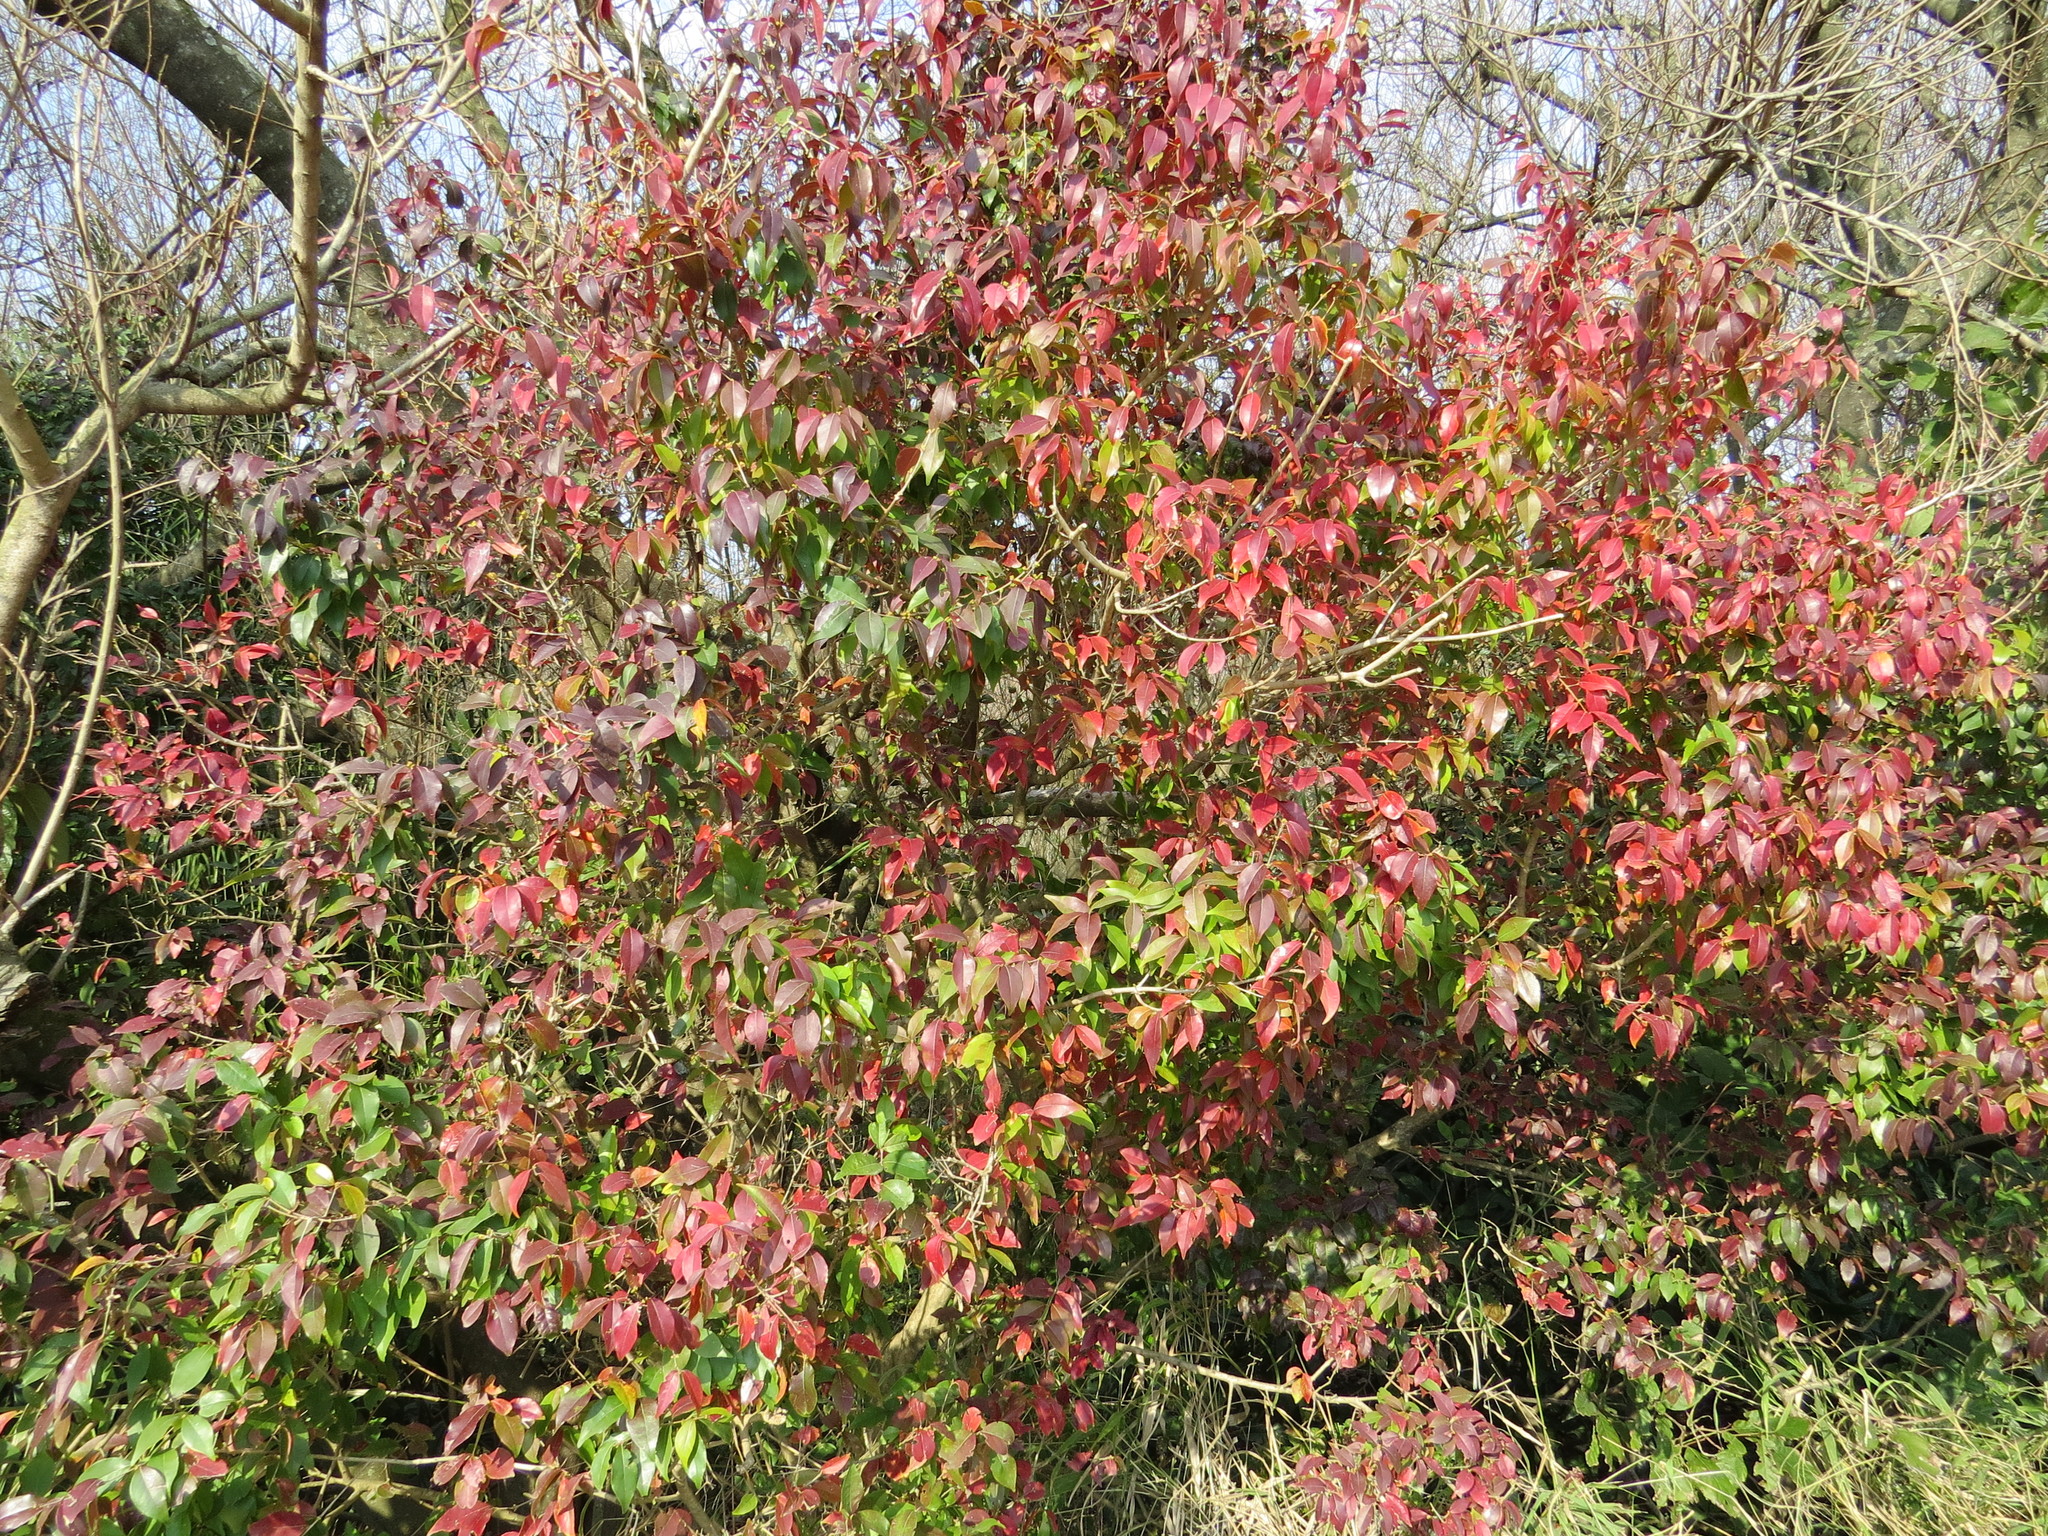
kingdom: Plantae
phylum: Tracheophyta
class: Magnoliopsida
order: Myrtales
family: Myrtaceae
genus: Eugenia
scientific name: Eugenia uniflora
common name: Surinam cherry
